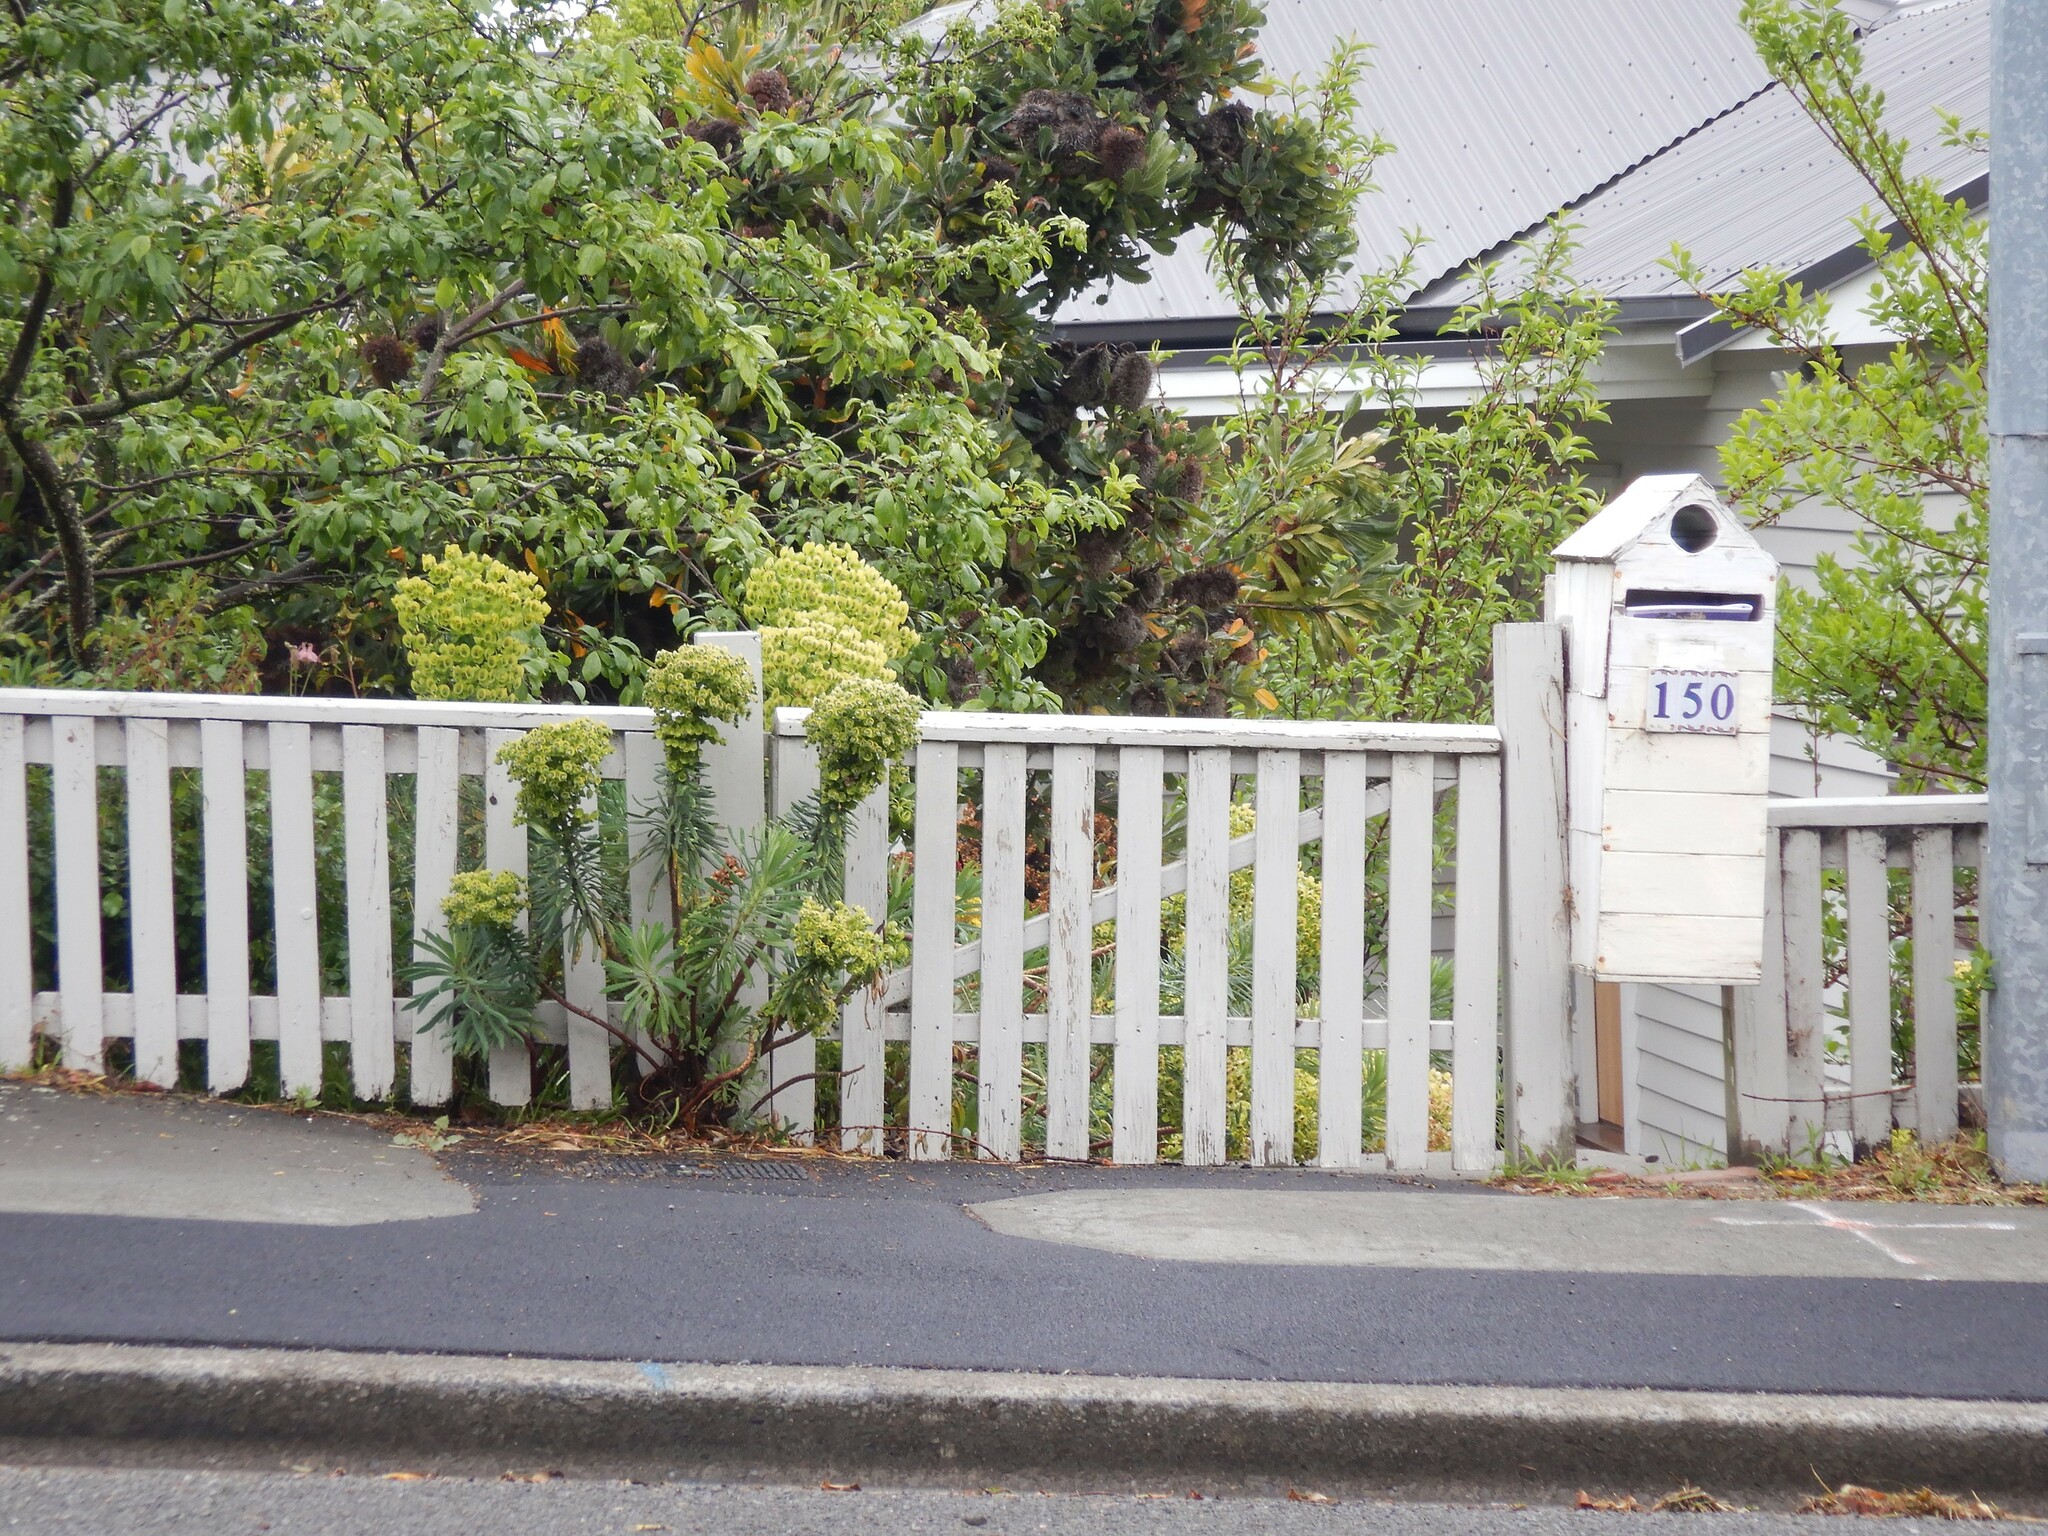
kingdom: Plantae
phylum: Tracheophyta
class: Magnoliopsida
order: Malpighiales
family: Euphorbiaceae
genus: Euphorbia
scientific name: Euphorbia characias
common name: Mediterranean spurge
